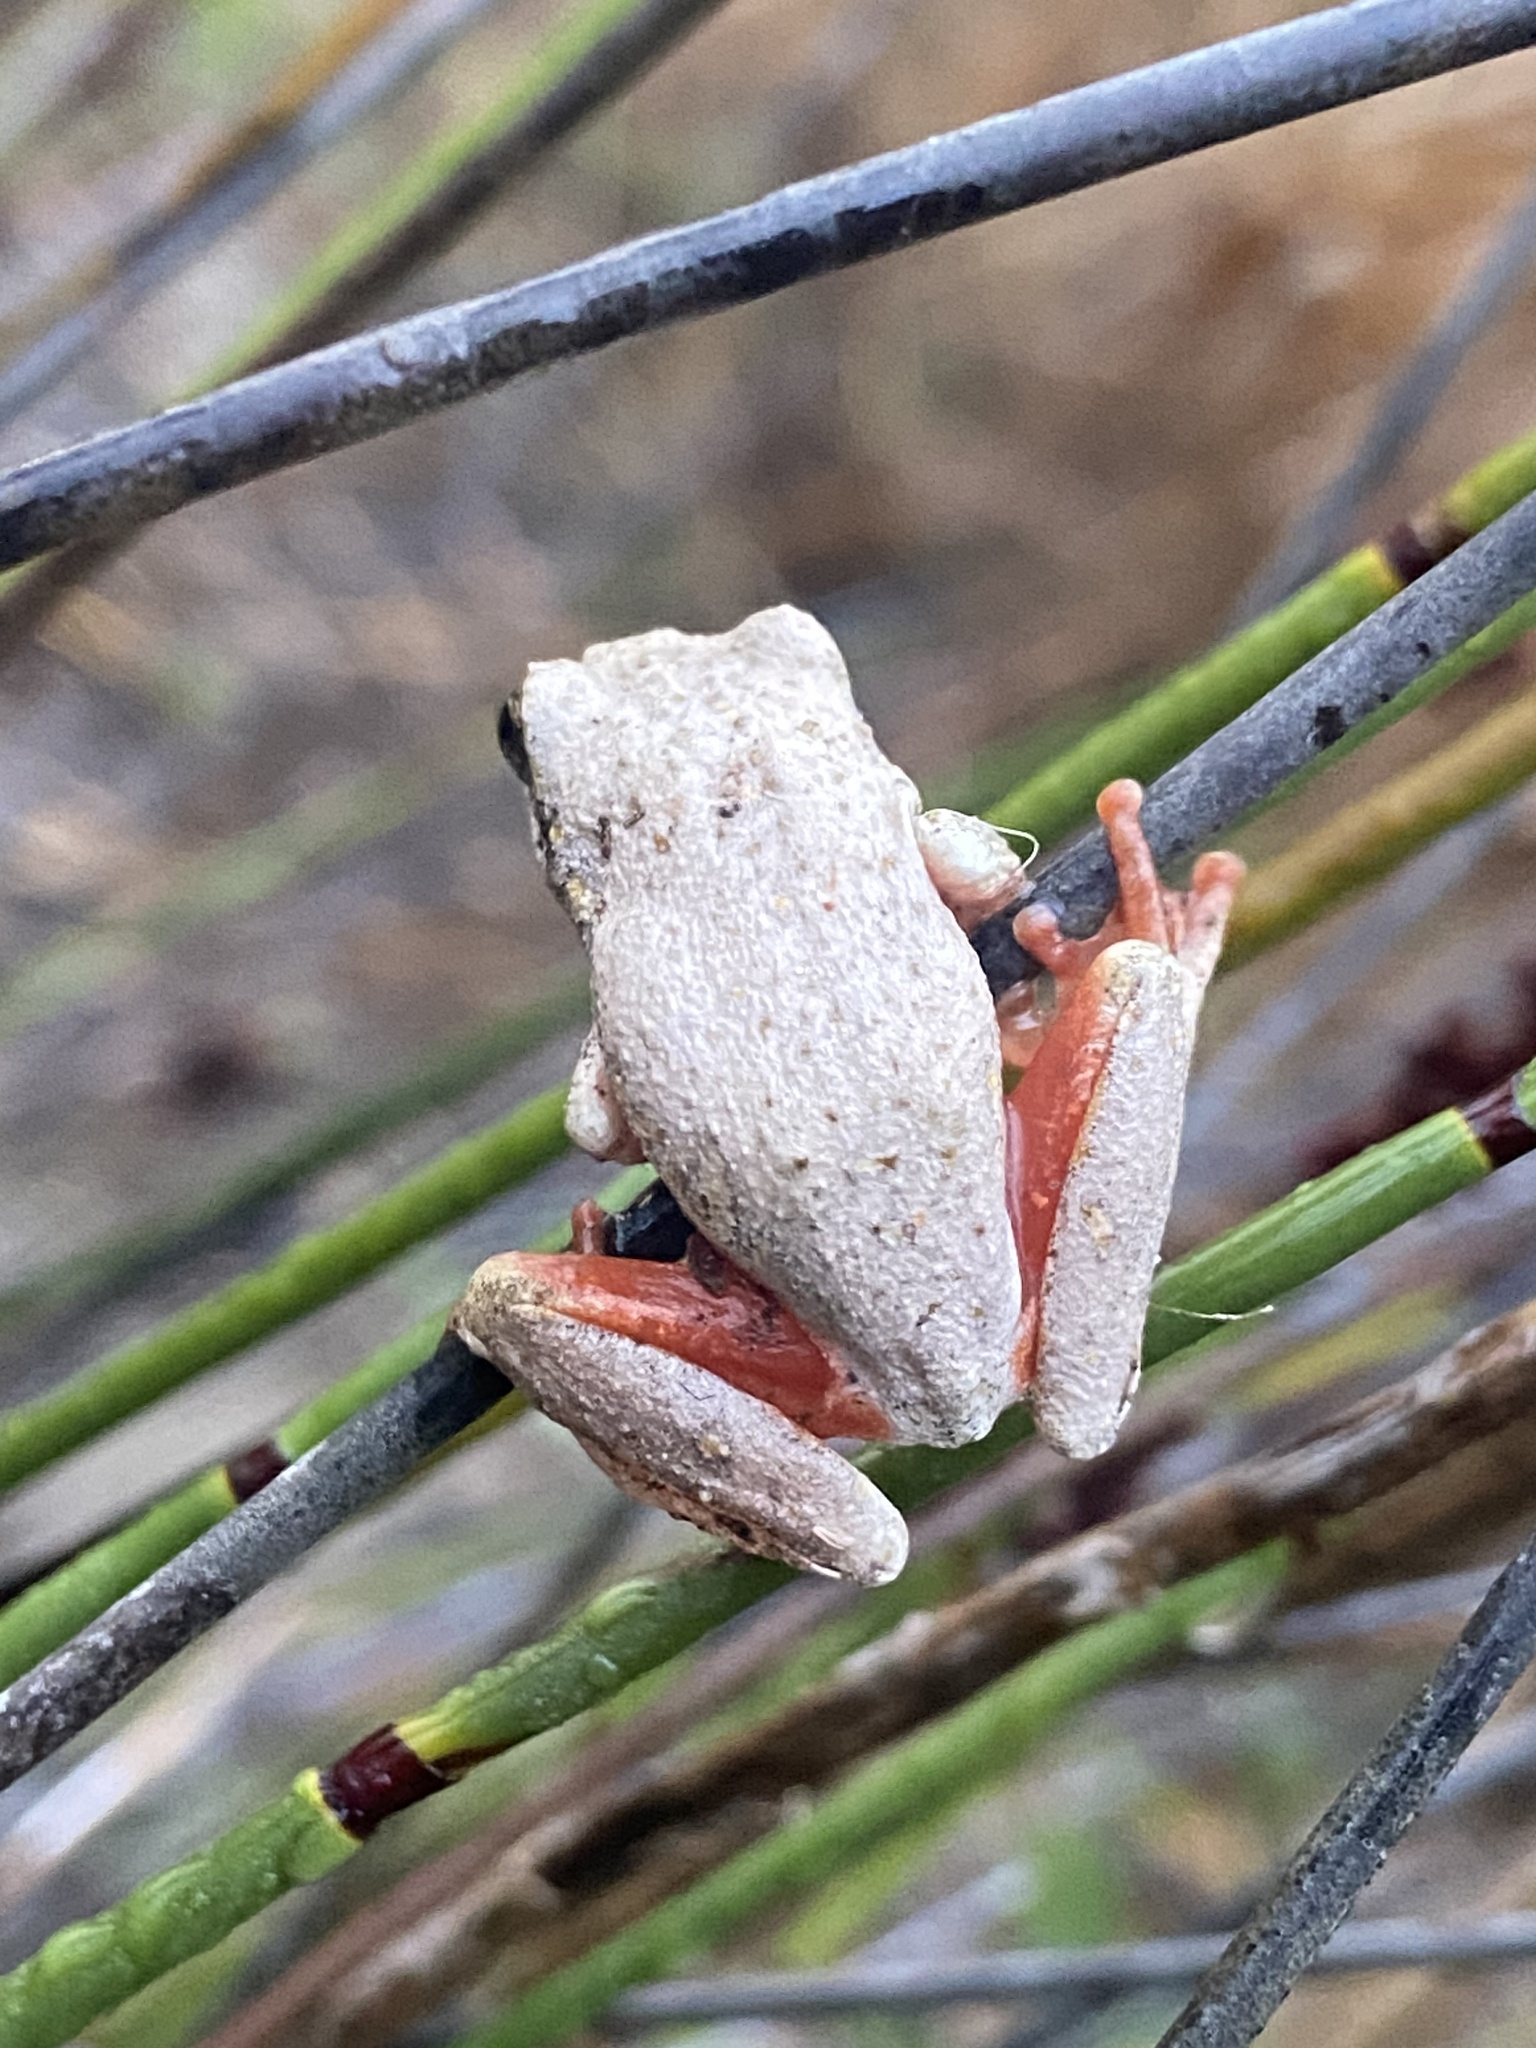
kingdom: Animalia
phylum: Chordata
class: Amphibia
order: Anura
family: Hyperoliidae
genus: Hyperolius
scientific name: Hyperolius marmoratus
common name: Painted reed frog
